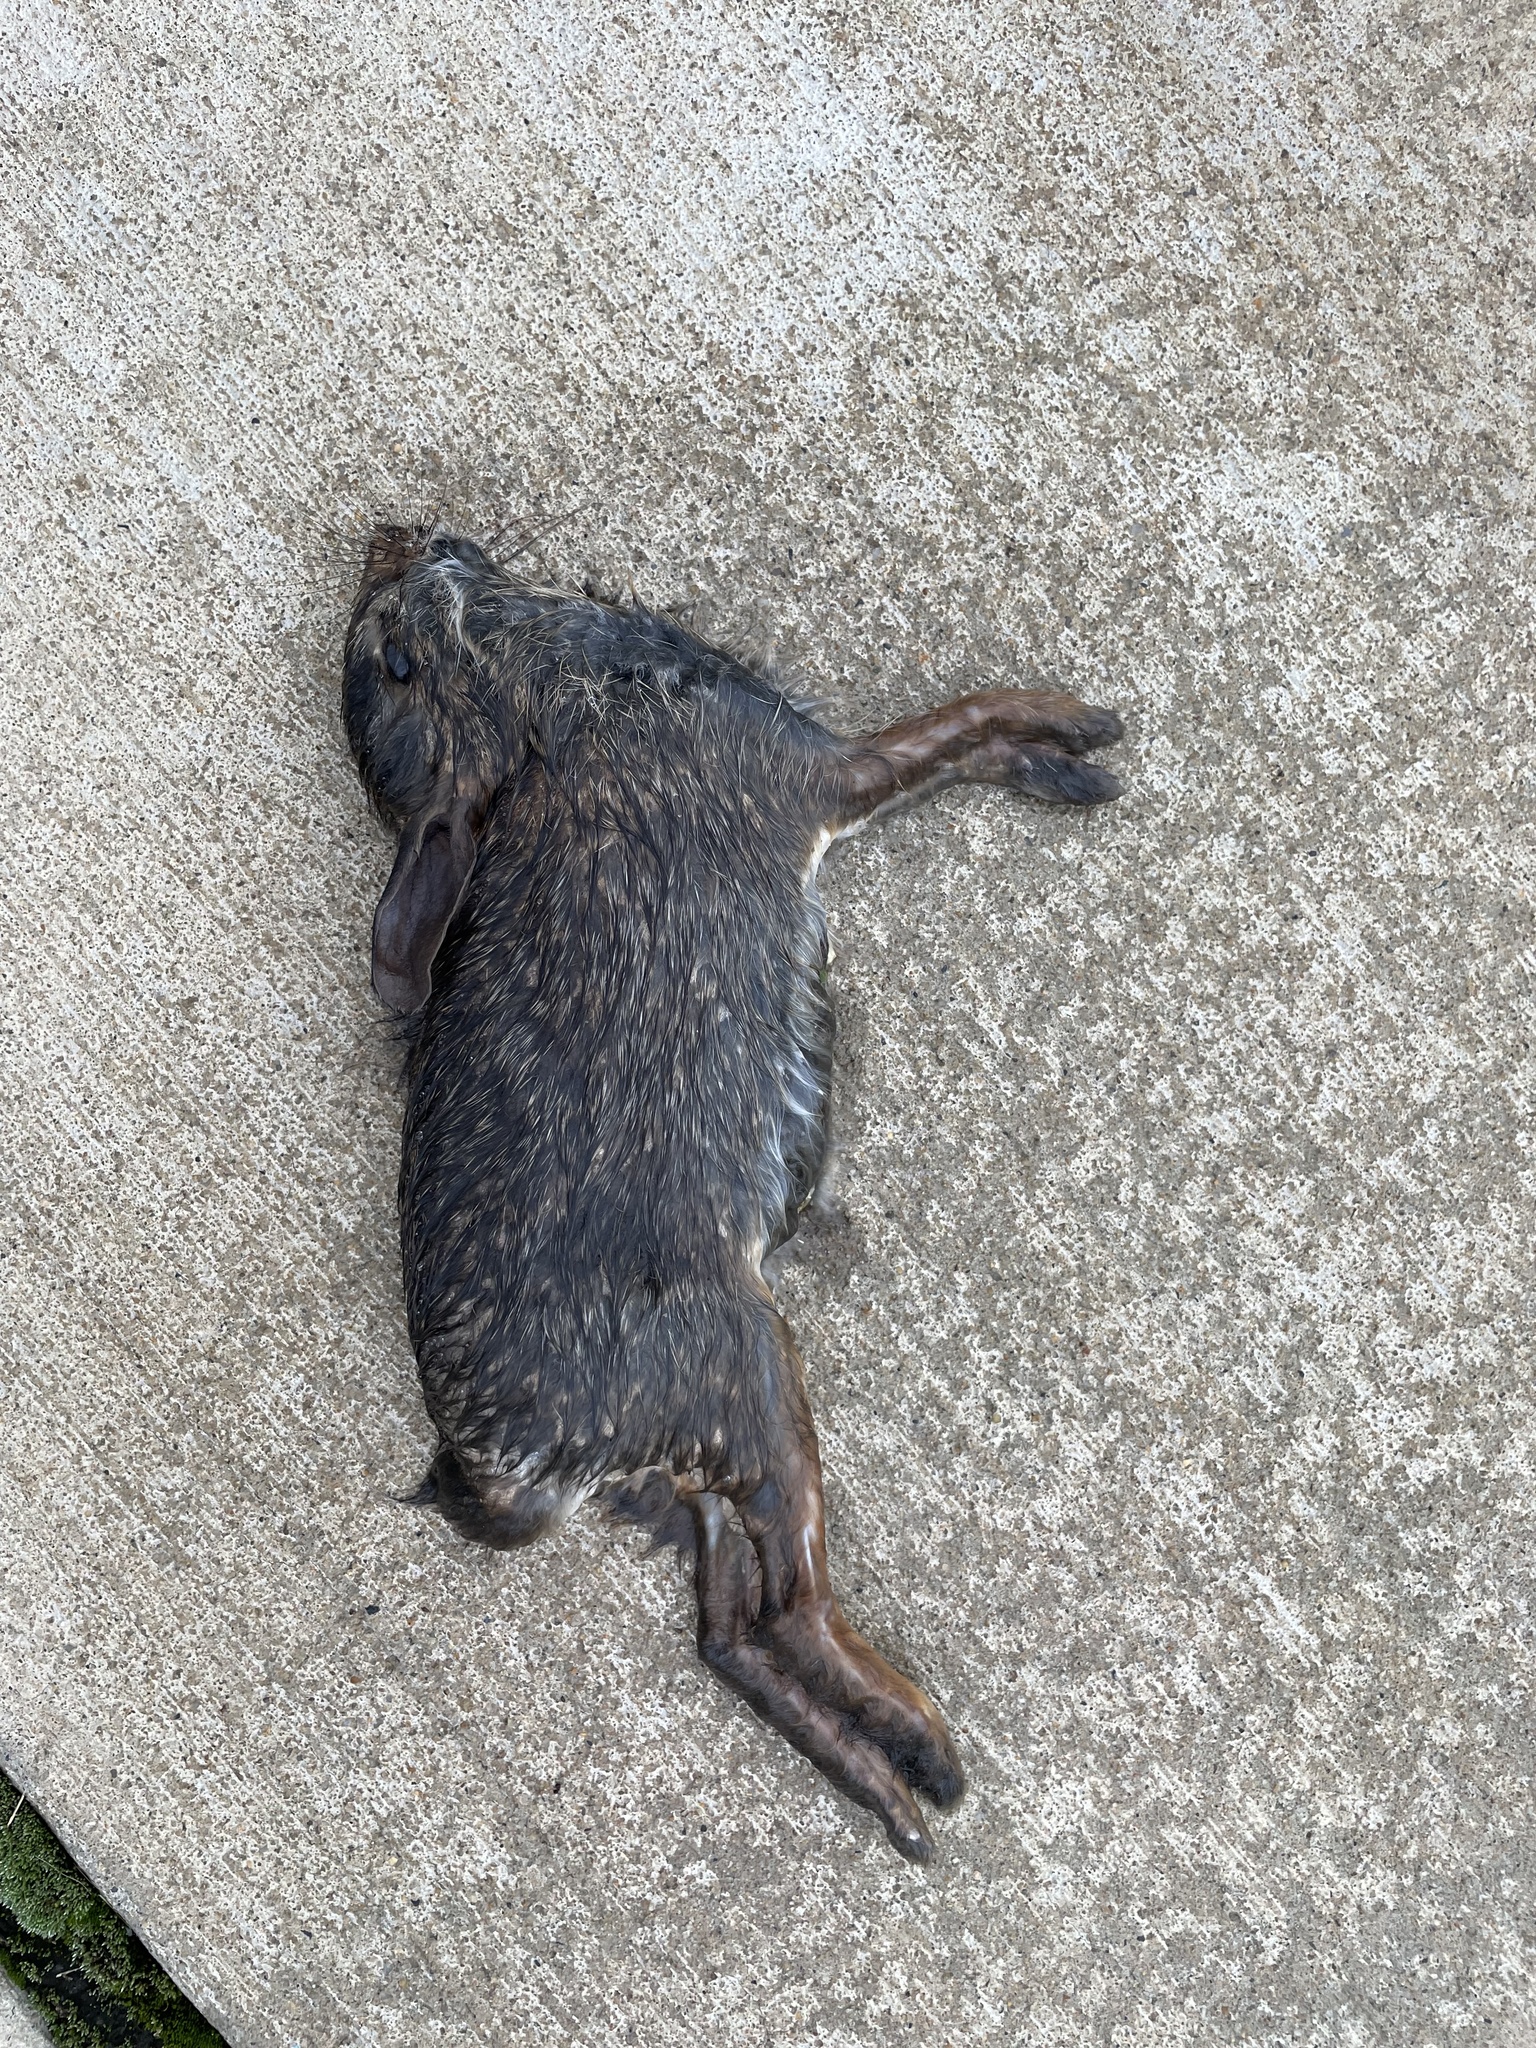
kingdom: Animalia
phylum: Chordata
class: Mammalia
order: Lagomorpha
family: Leporidae
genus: Sylvilagus
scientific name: Sylvilagus floridanus
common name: Eastern cottontail
